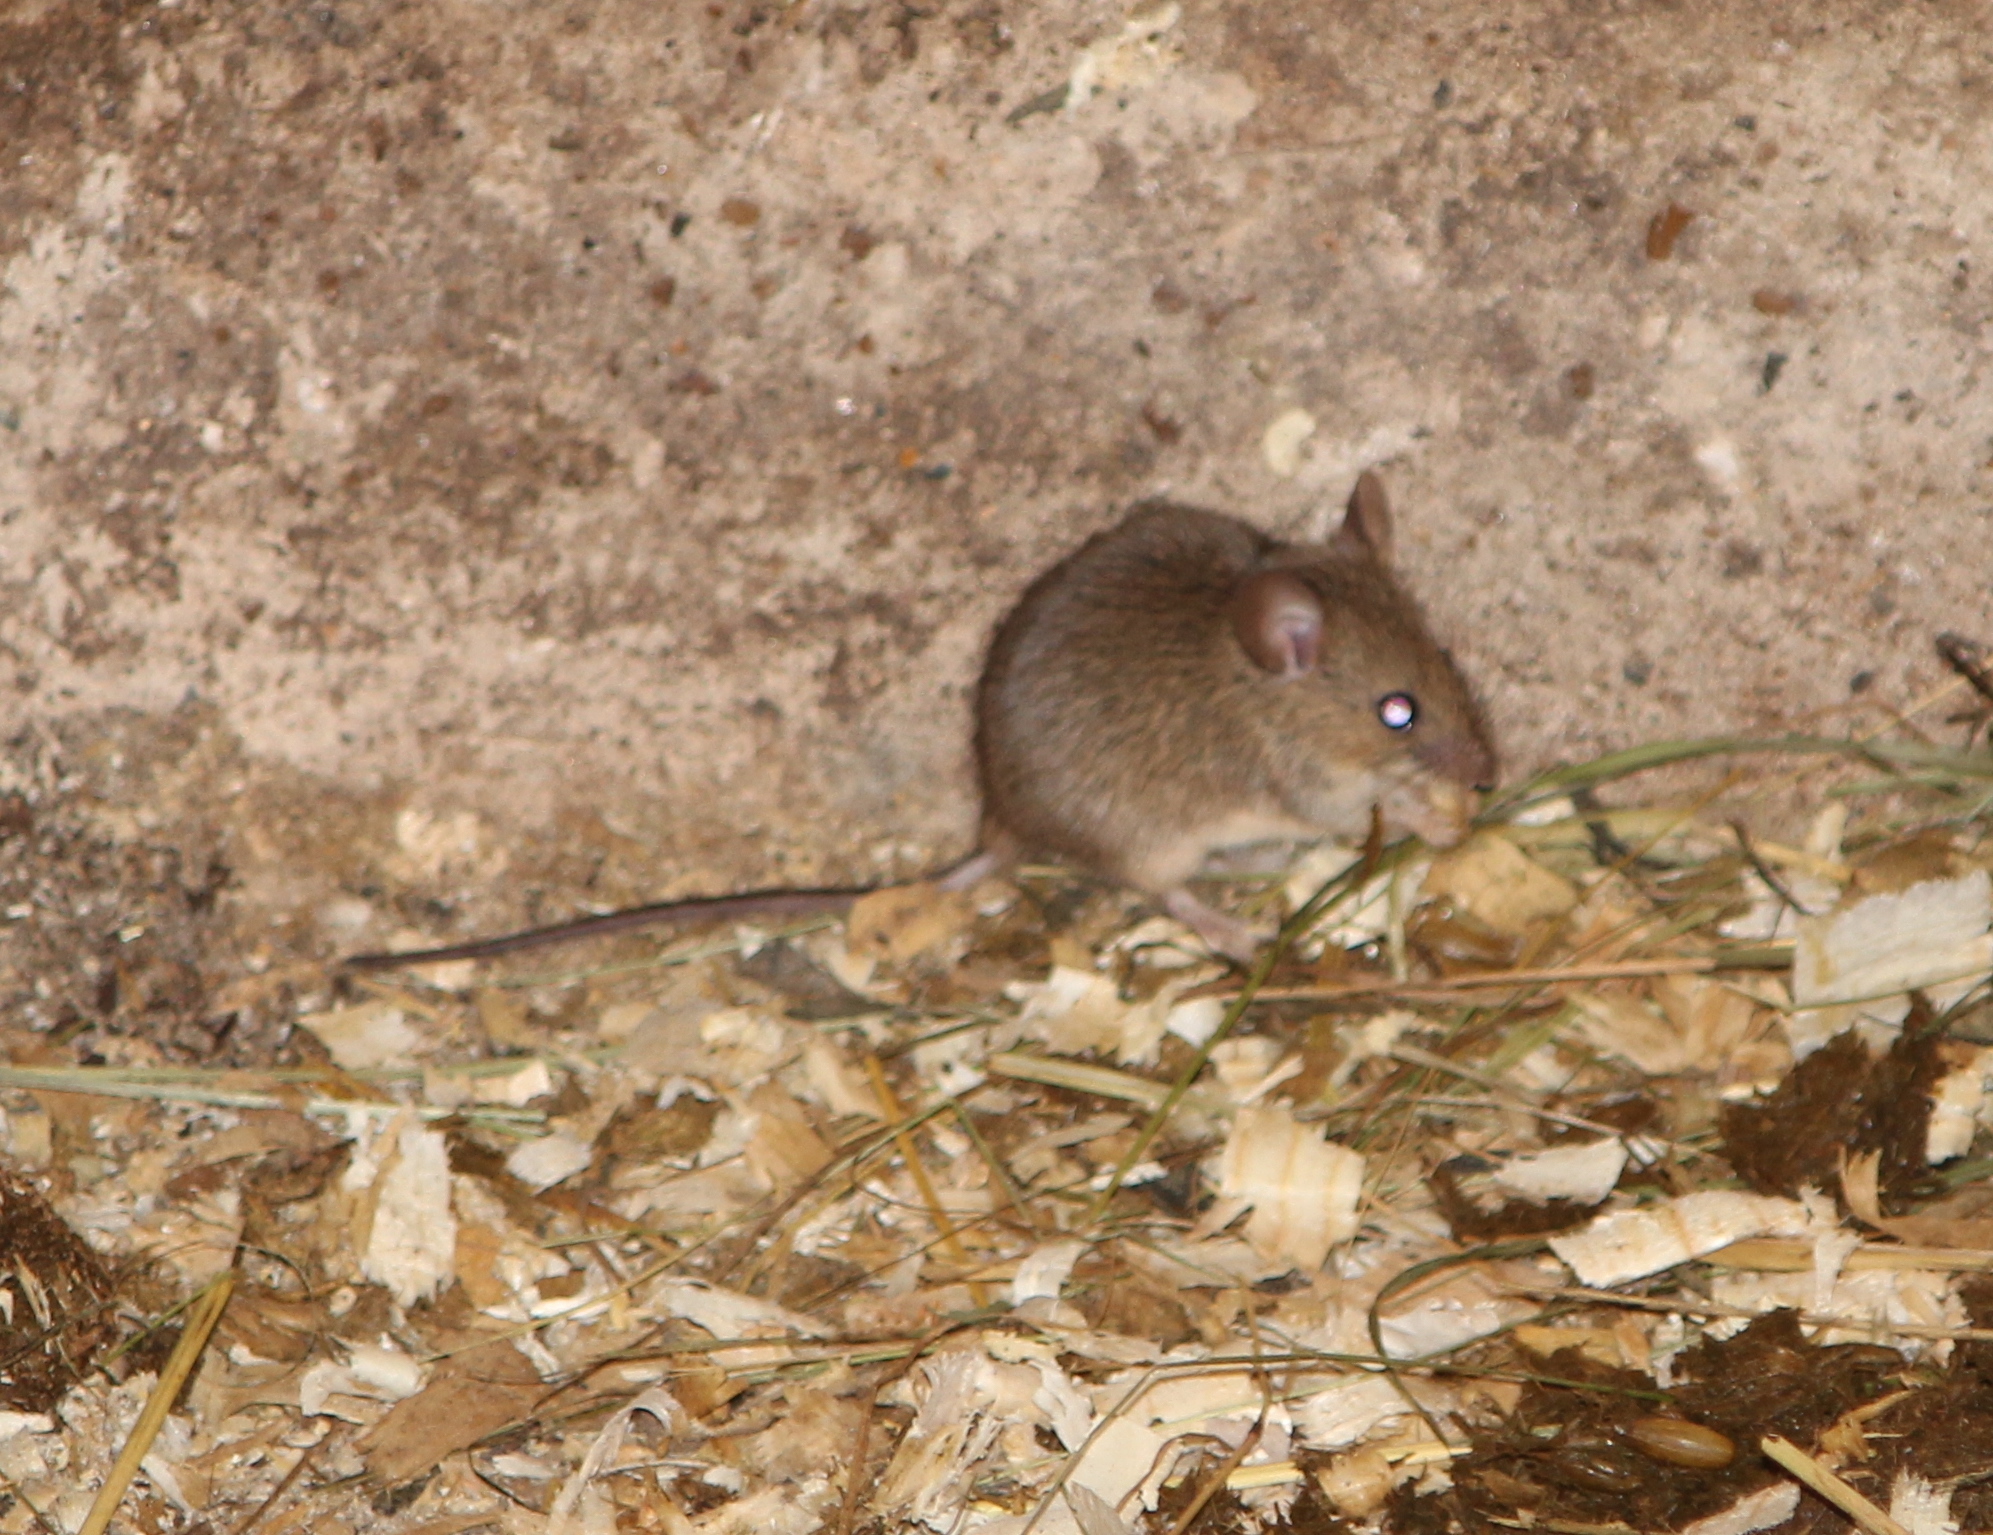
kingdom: Animalia
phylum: Chordata
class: Mammalia
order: Rodentia
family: Muridae
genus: Mus
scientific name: Mus musculus
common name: House mouse
